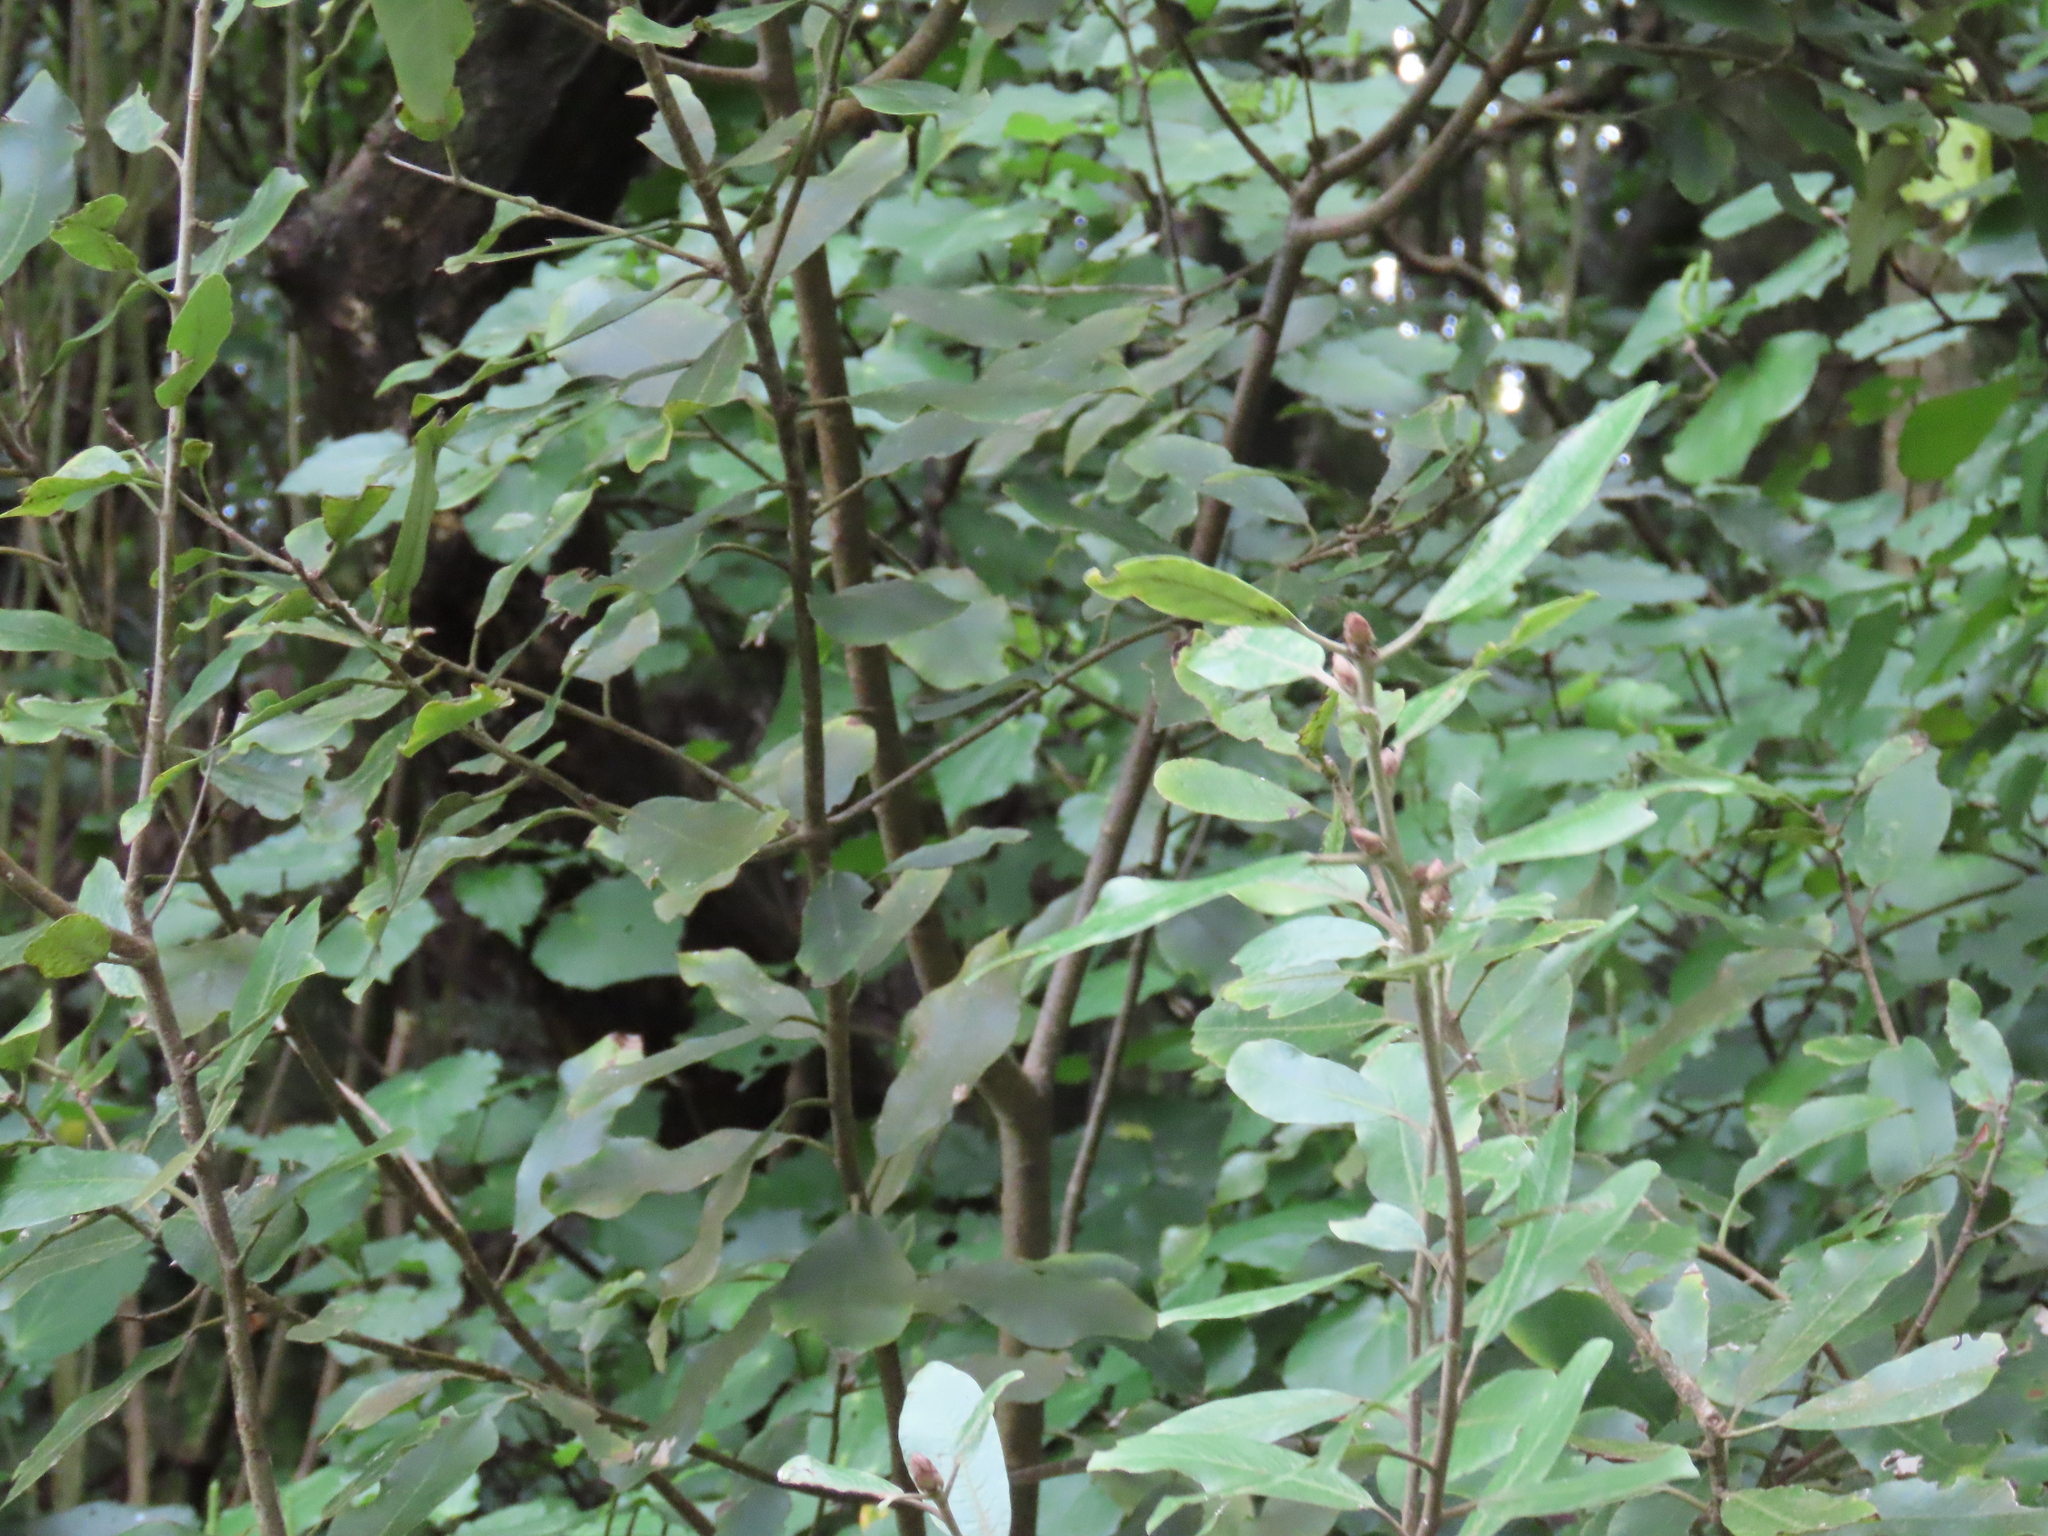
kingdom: Plantae
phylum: Tracheophyta
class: Magnoliopsida
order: Apiales
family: Pittosporaceae
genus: Pittosporum
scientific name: Pittosporum ralphii
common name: Ralph's desertwillow
